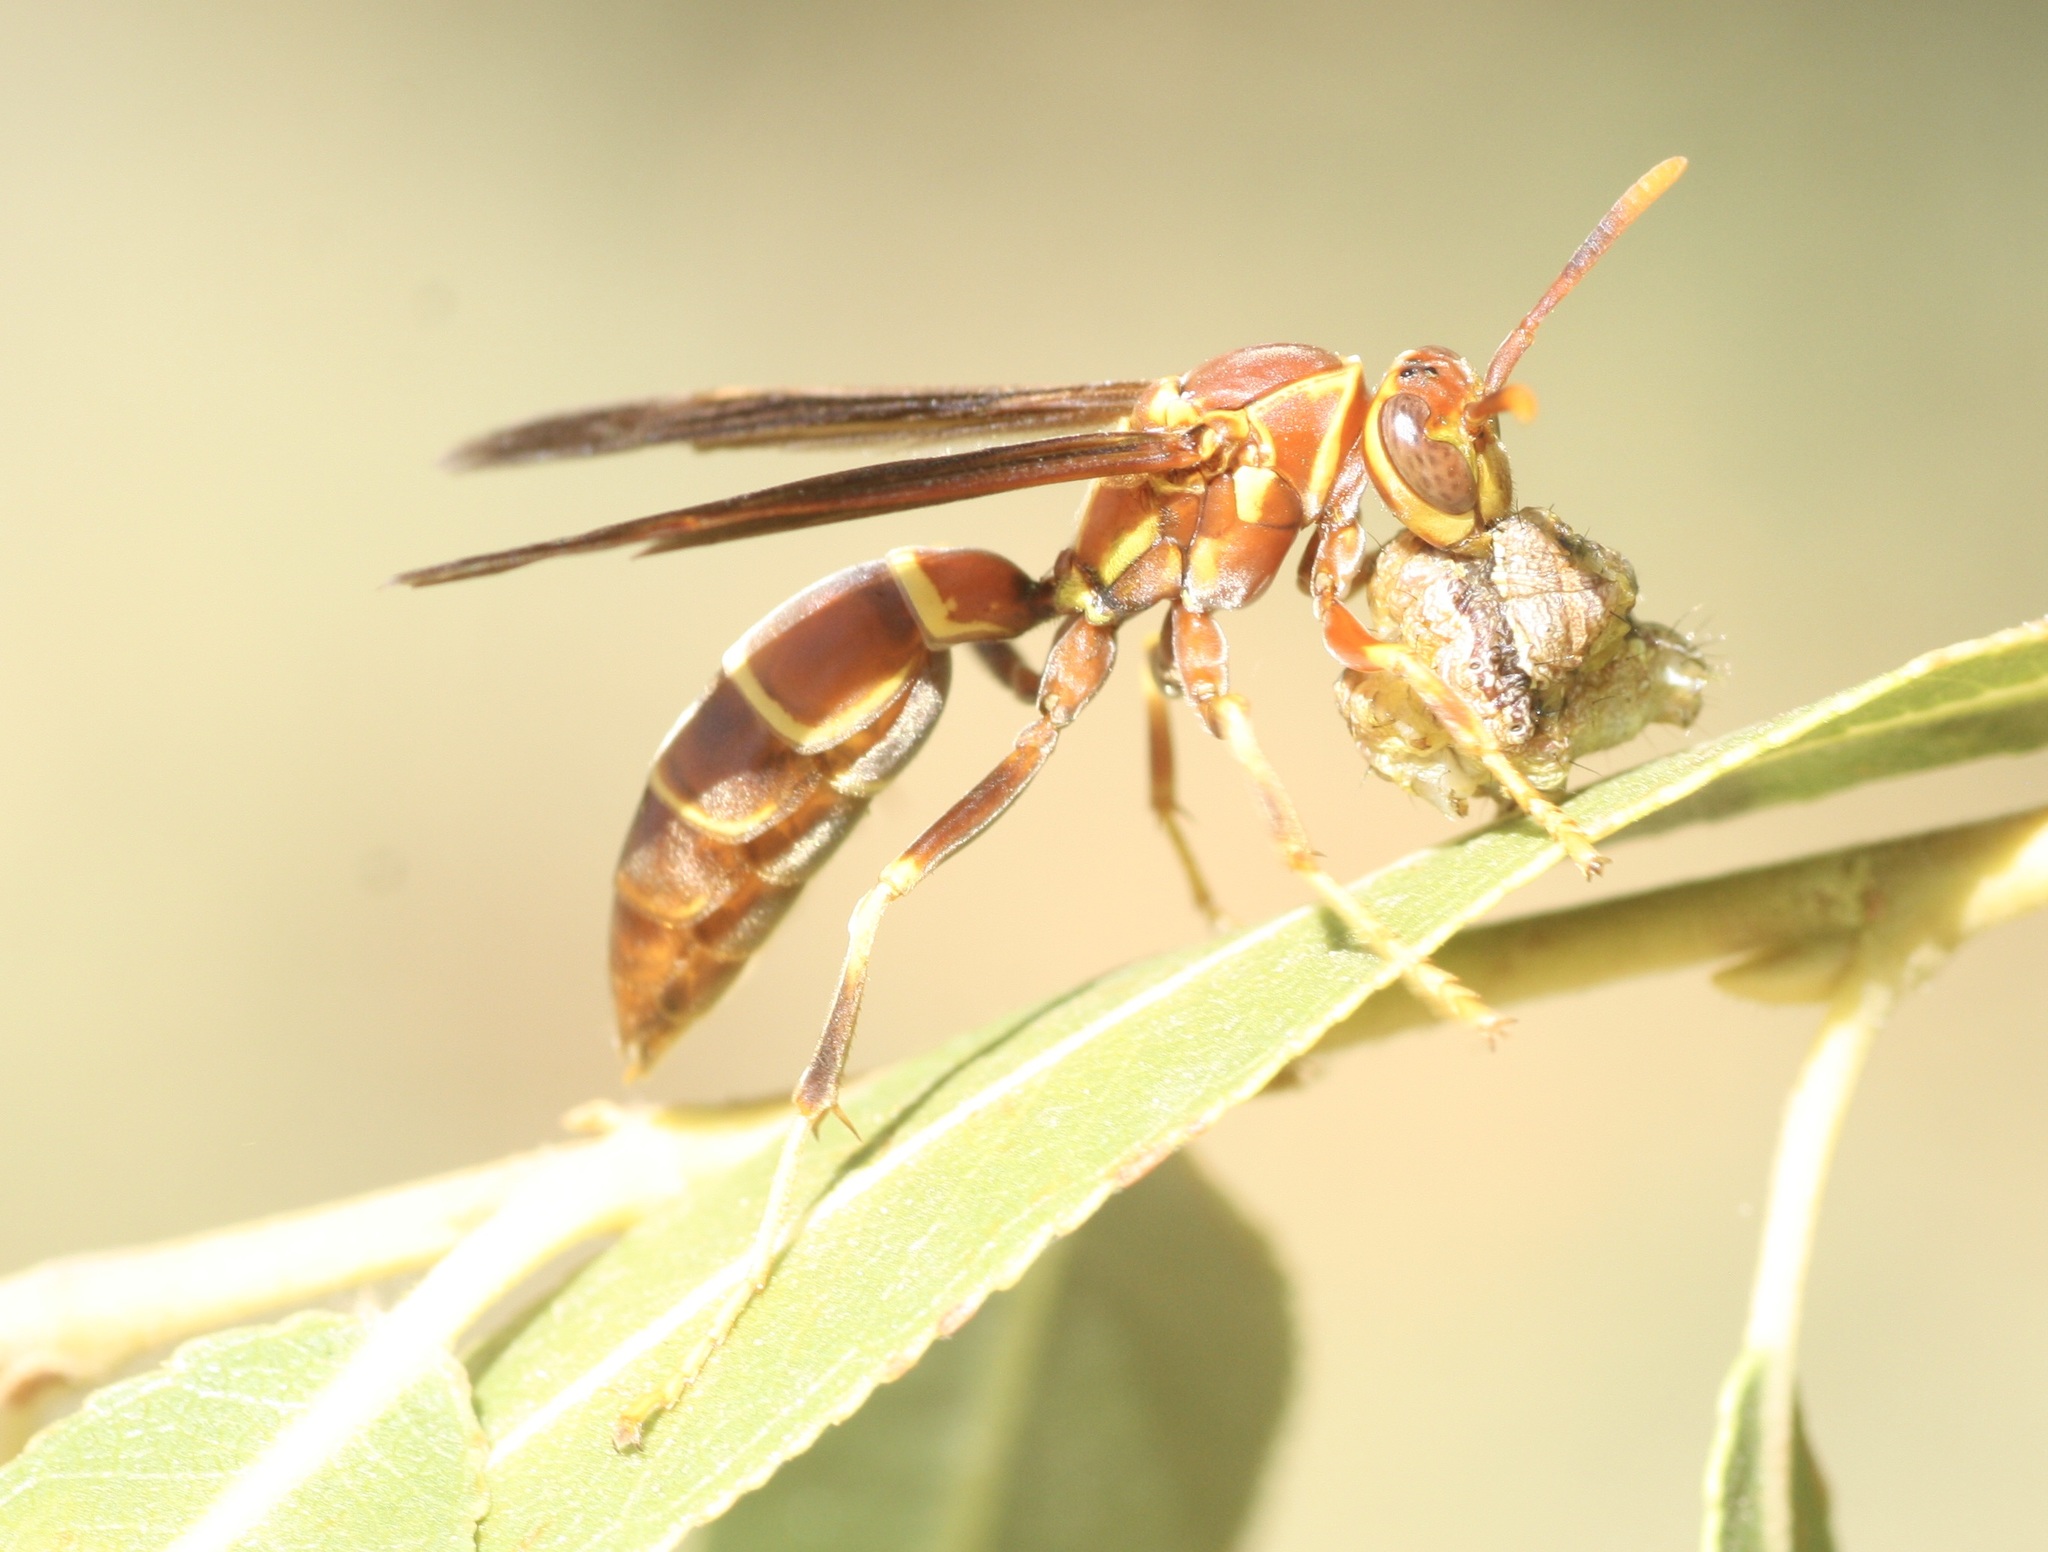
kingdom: Animalia
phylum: Arthropoda
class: Insecta
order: Hymenoptera
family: Eumenidae
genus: Polistes
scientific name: Polistes arizonensis
